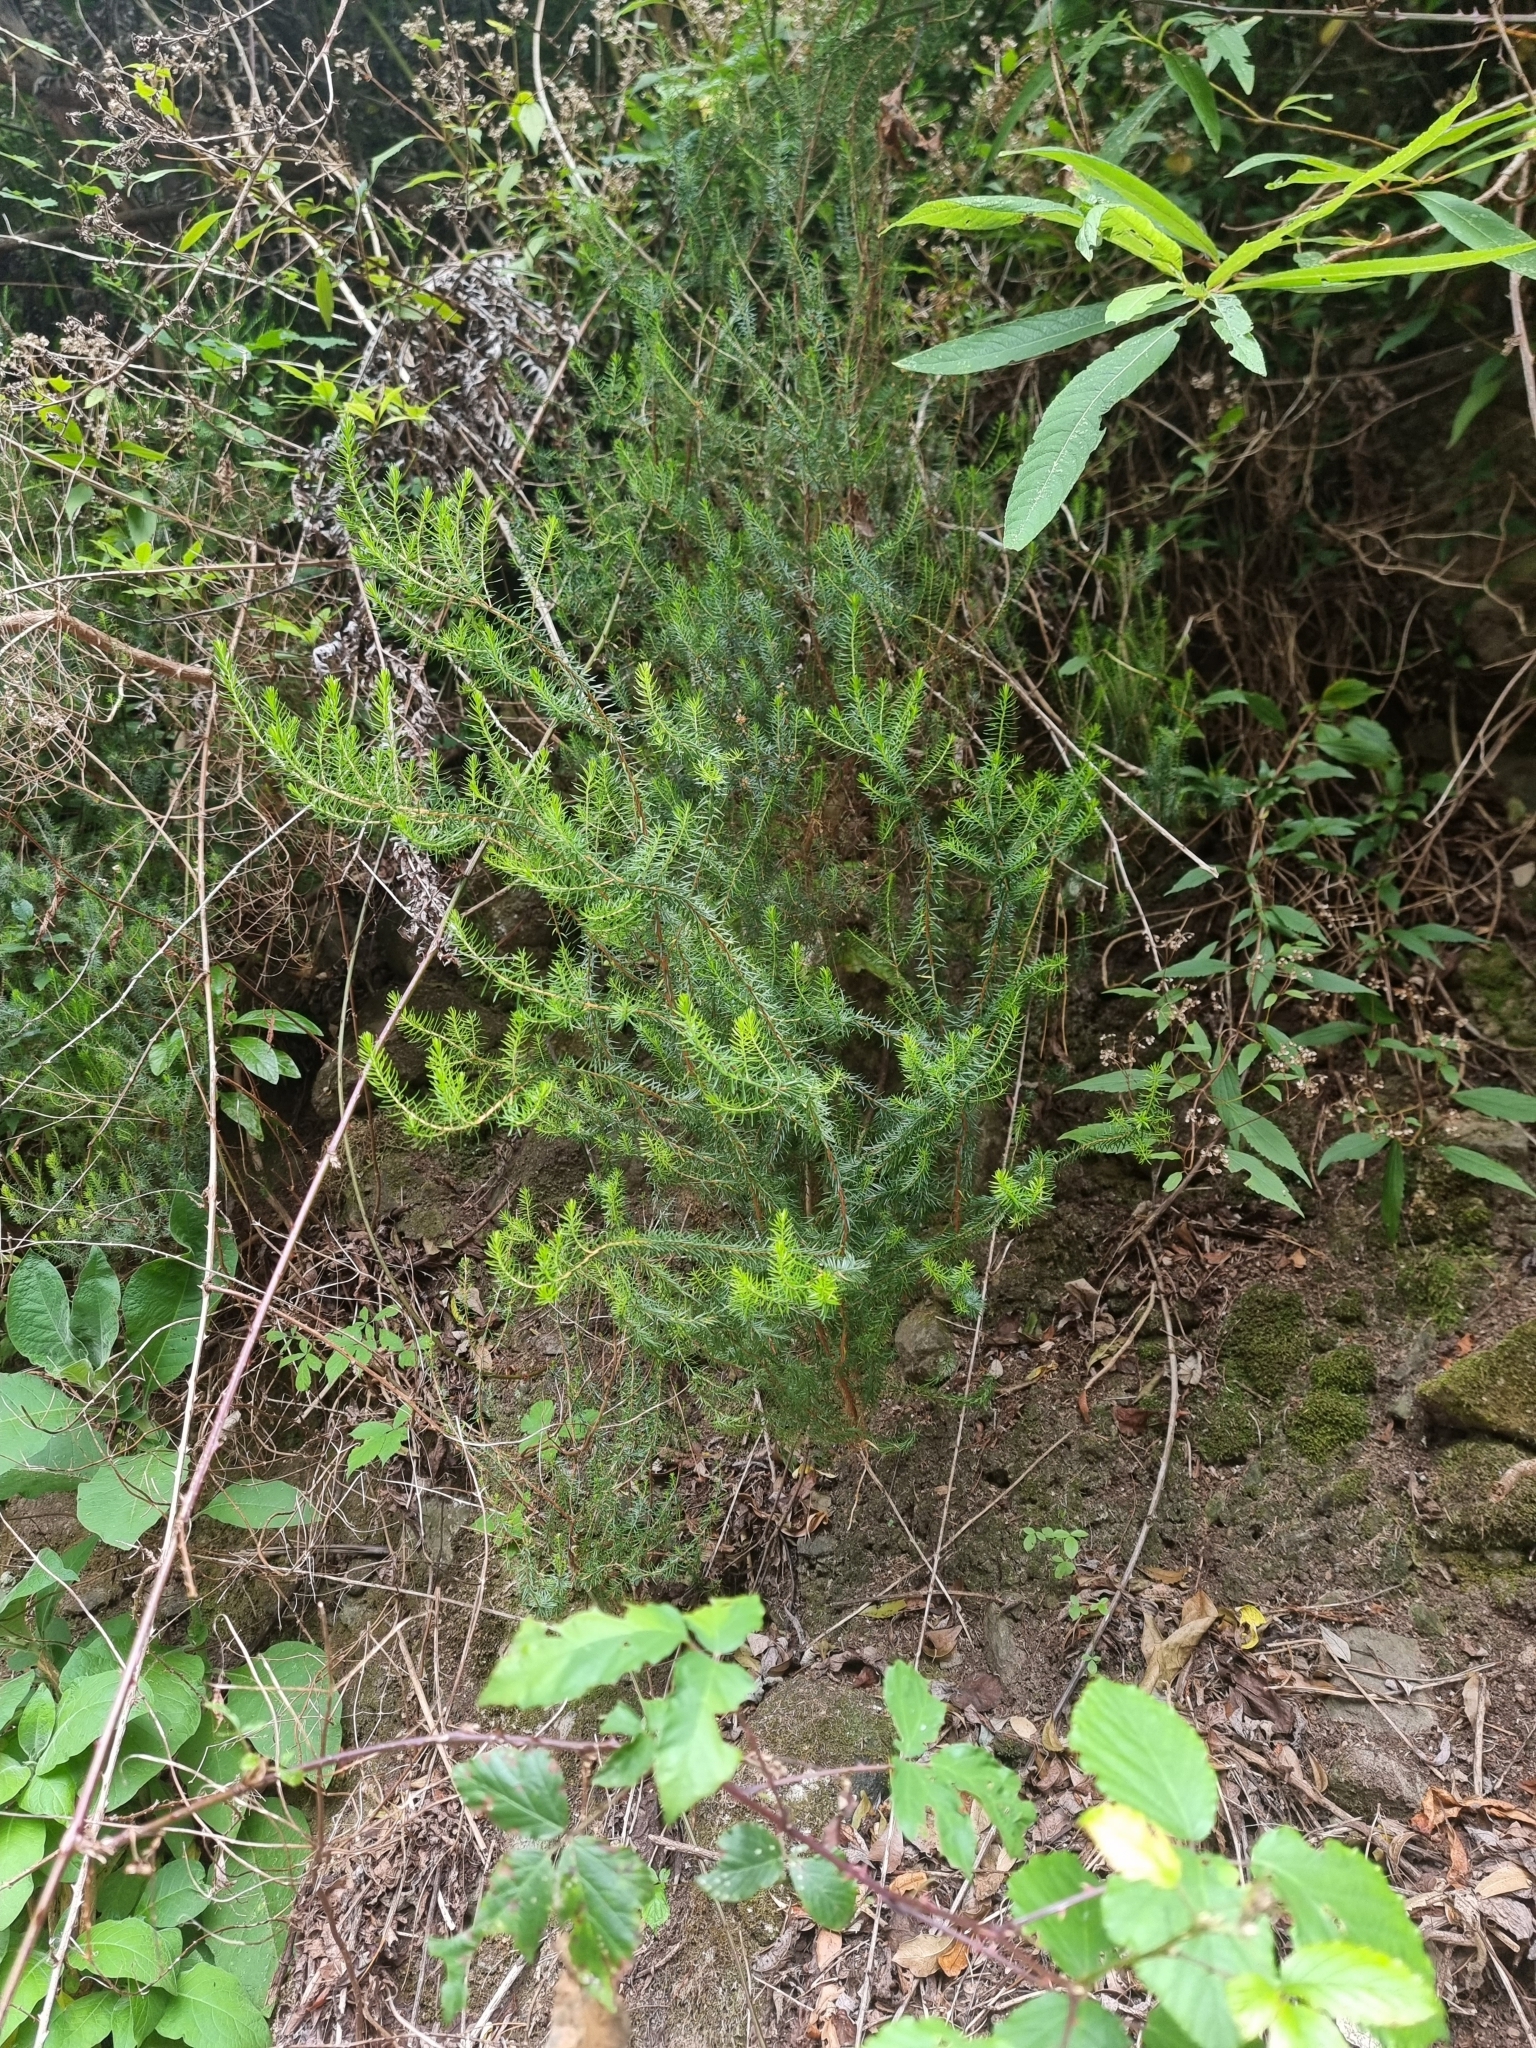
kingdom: Plantae
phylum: Tracheophyta
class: Magnoliopsida
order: Ericales
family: Ericaceae
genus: Erica
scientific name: Erica platycodon
